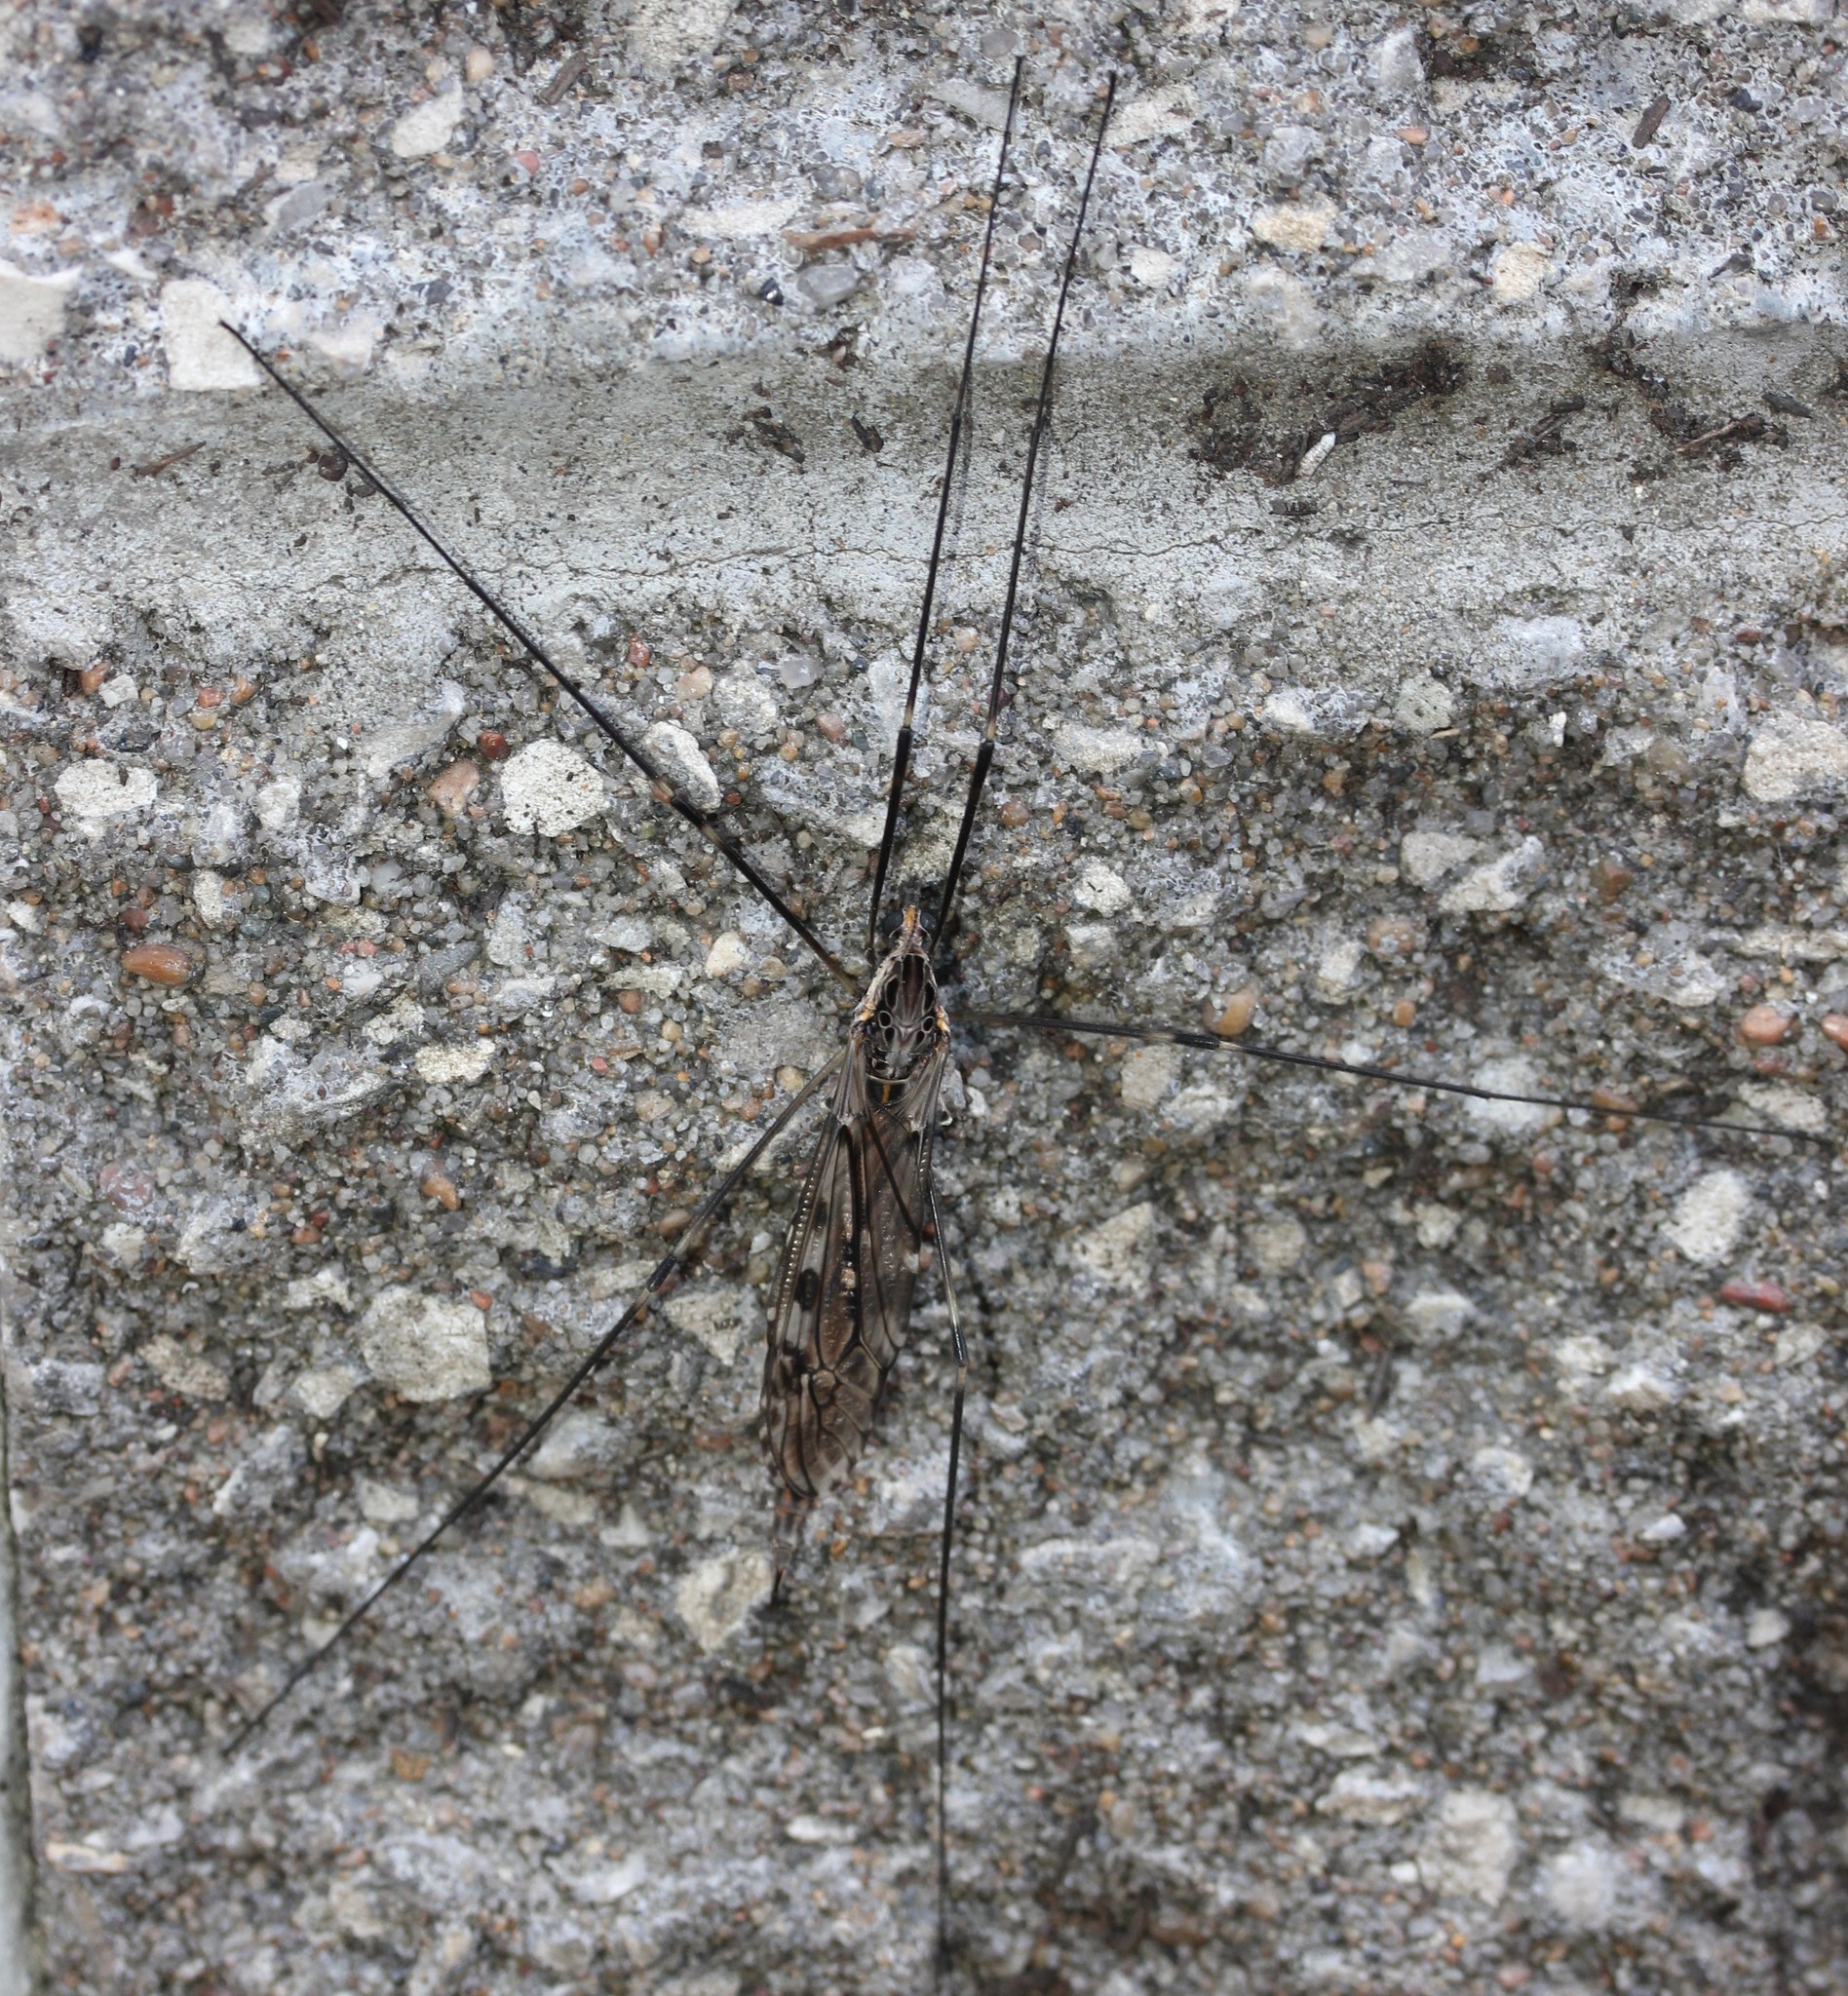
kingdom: Animalia
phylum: Arthropoda
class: Insecta
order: Diptera
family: Tipulidae
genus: Tipula
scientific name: Tipula abdominalis
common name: Giant crane fly
